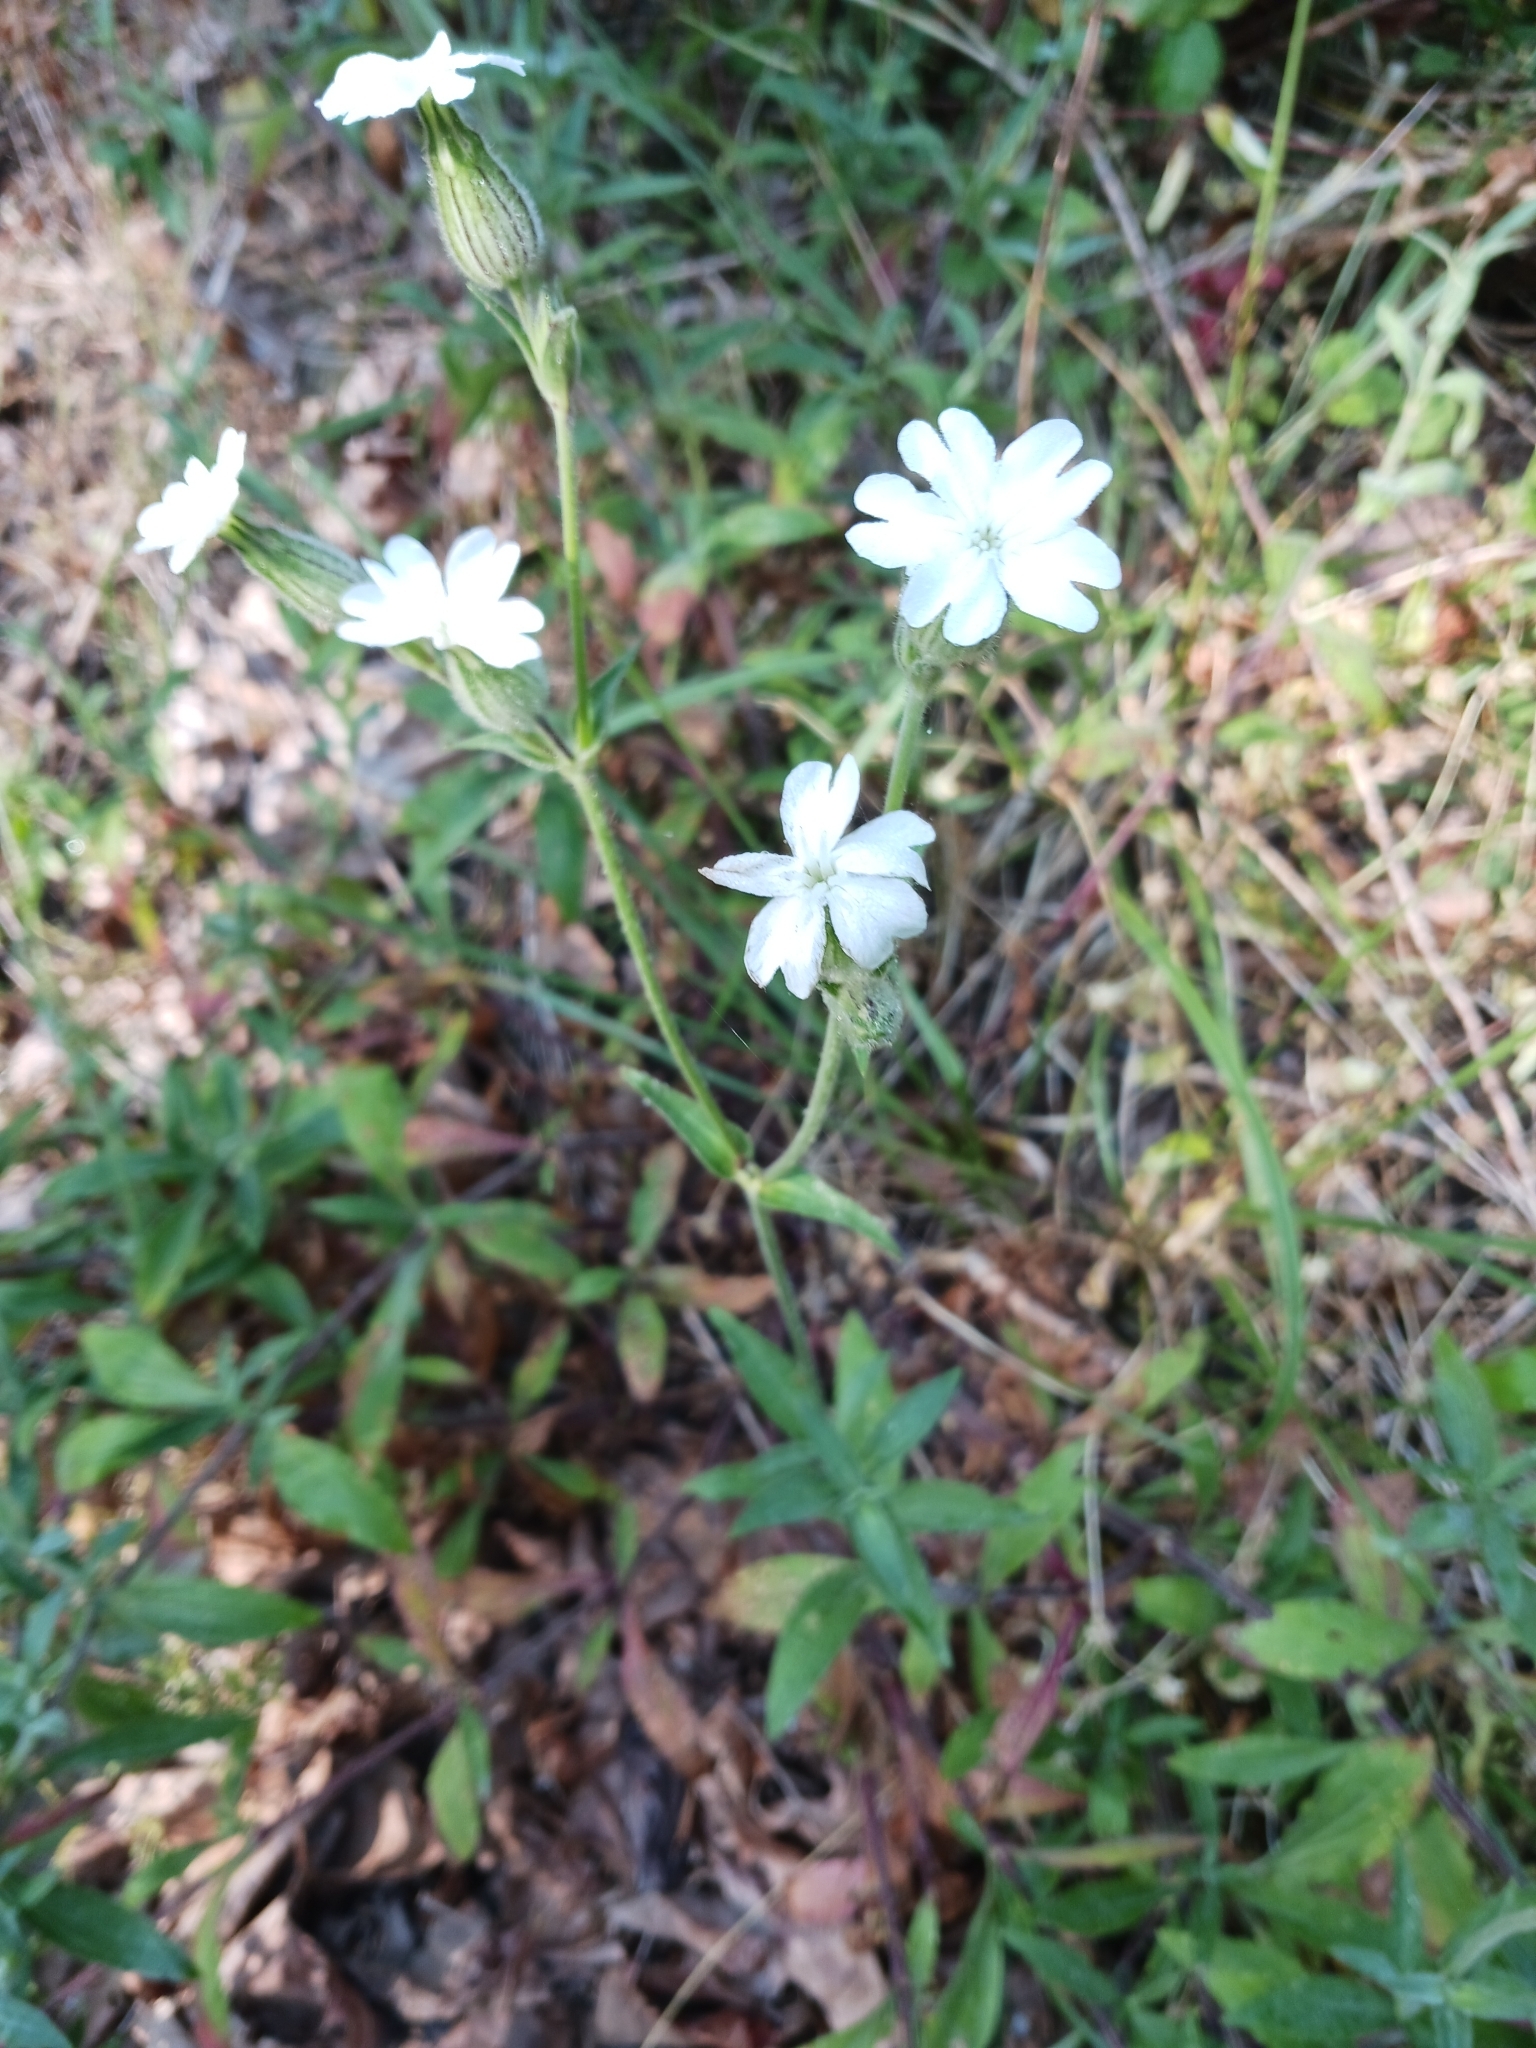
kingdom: Plantae
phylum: Tracheophyta
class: Magnoliopsida
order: Caryophyllales
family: Caryophyllaceae
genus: Silene
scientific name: Silene latifolia
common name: White campion
